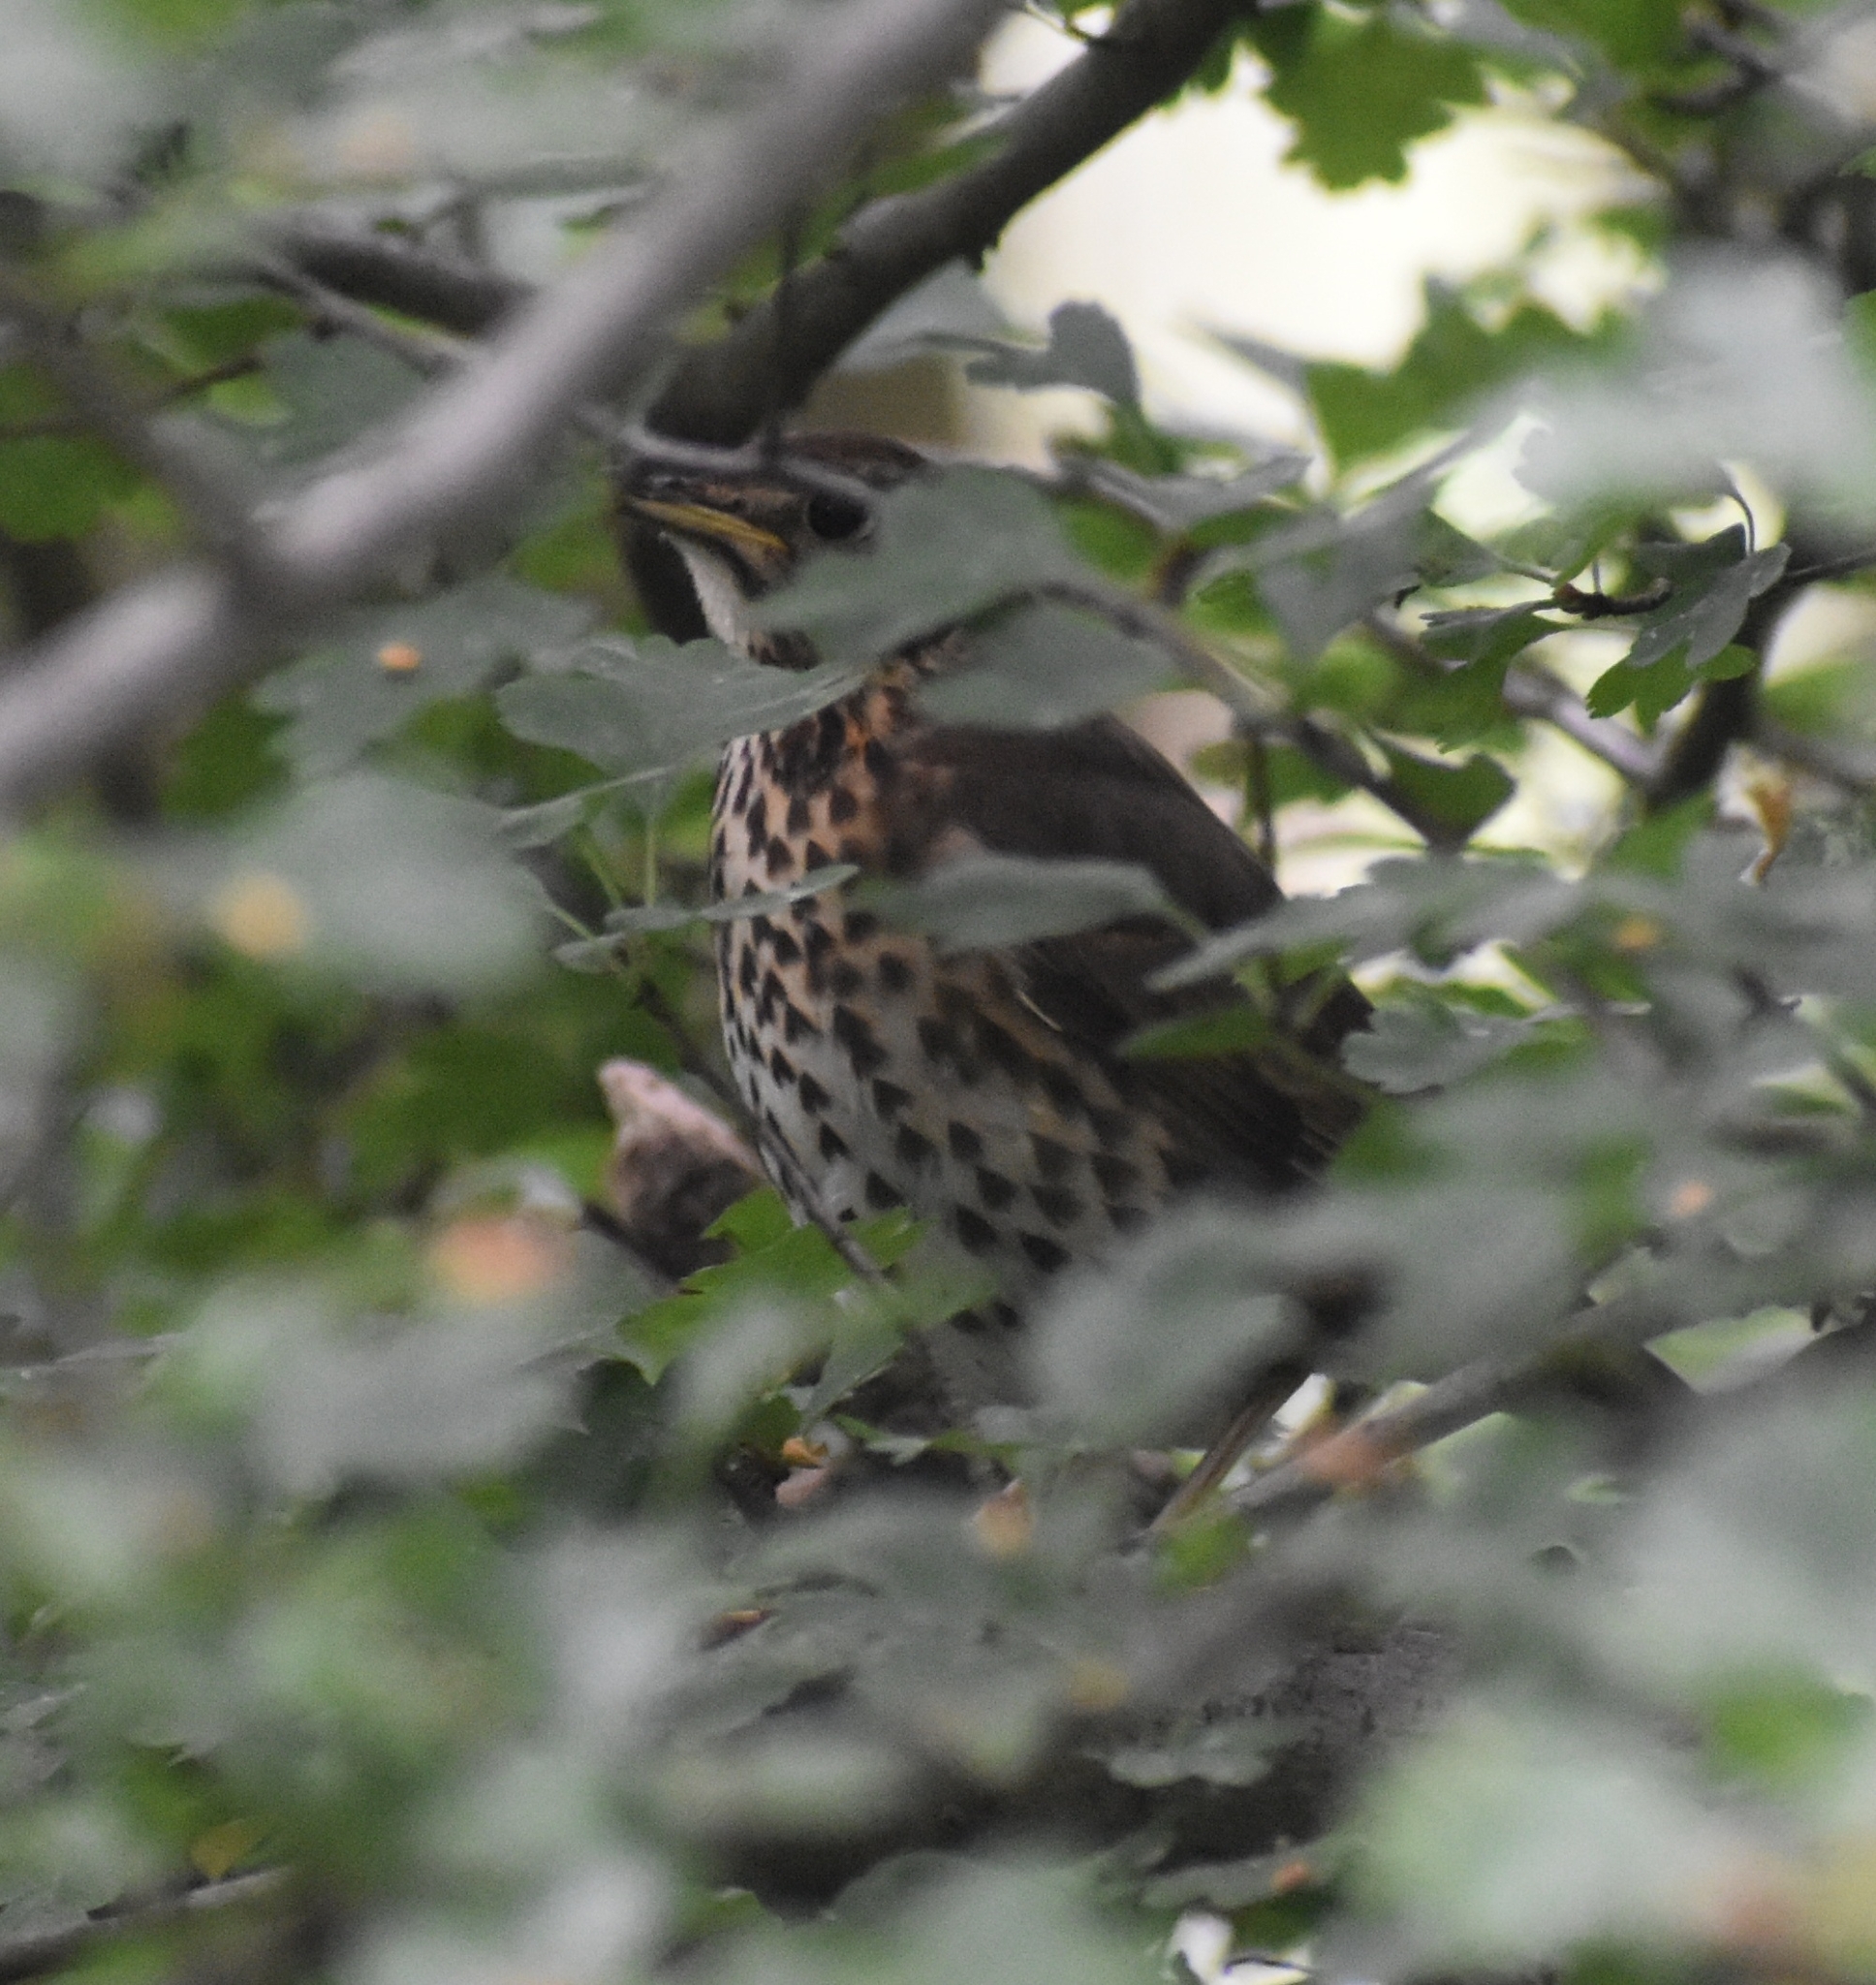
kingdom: Animalia
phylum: Chordata
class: Aves
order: Passeriformes
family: Turdidae
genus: Turdus
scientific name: Turdus philomelos
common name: Song thrush
